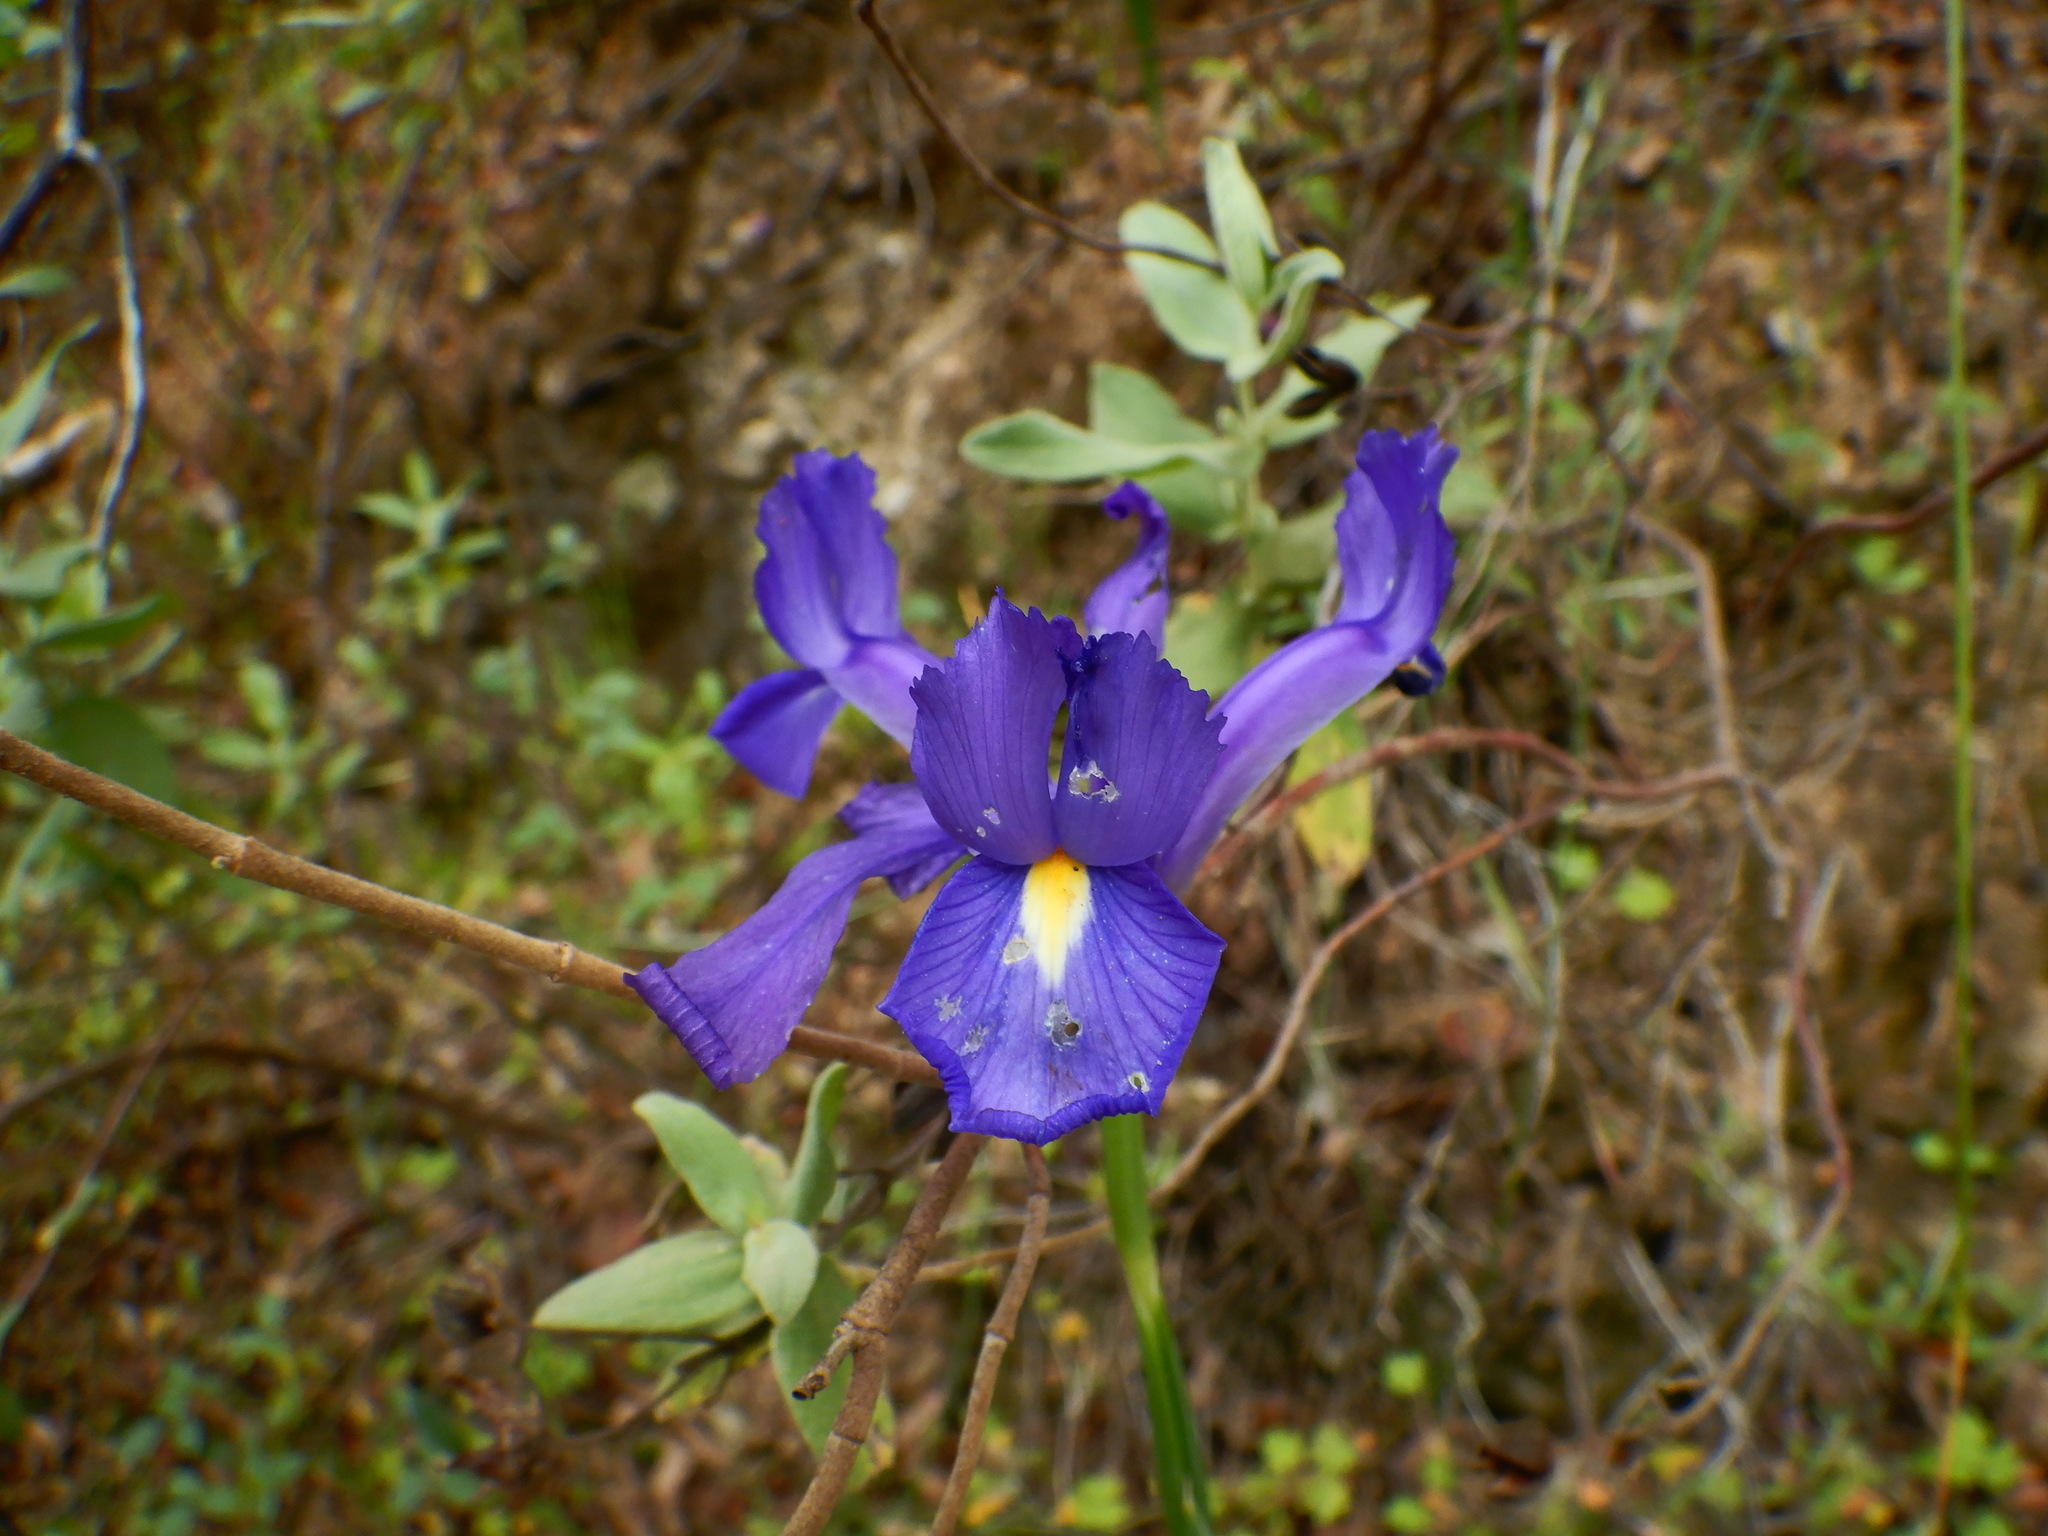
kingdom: Plantae
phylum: Tracheophyta
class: Liliopsida
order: Asparagales
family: Iridaceae
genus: Iris
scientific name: Iris xiphium
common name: Spanish iris
